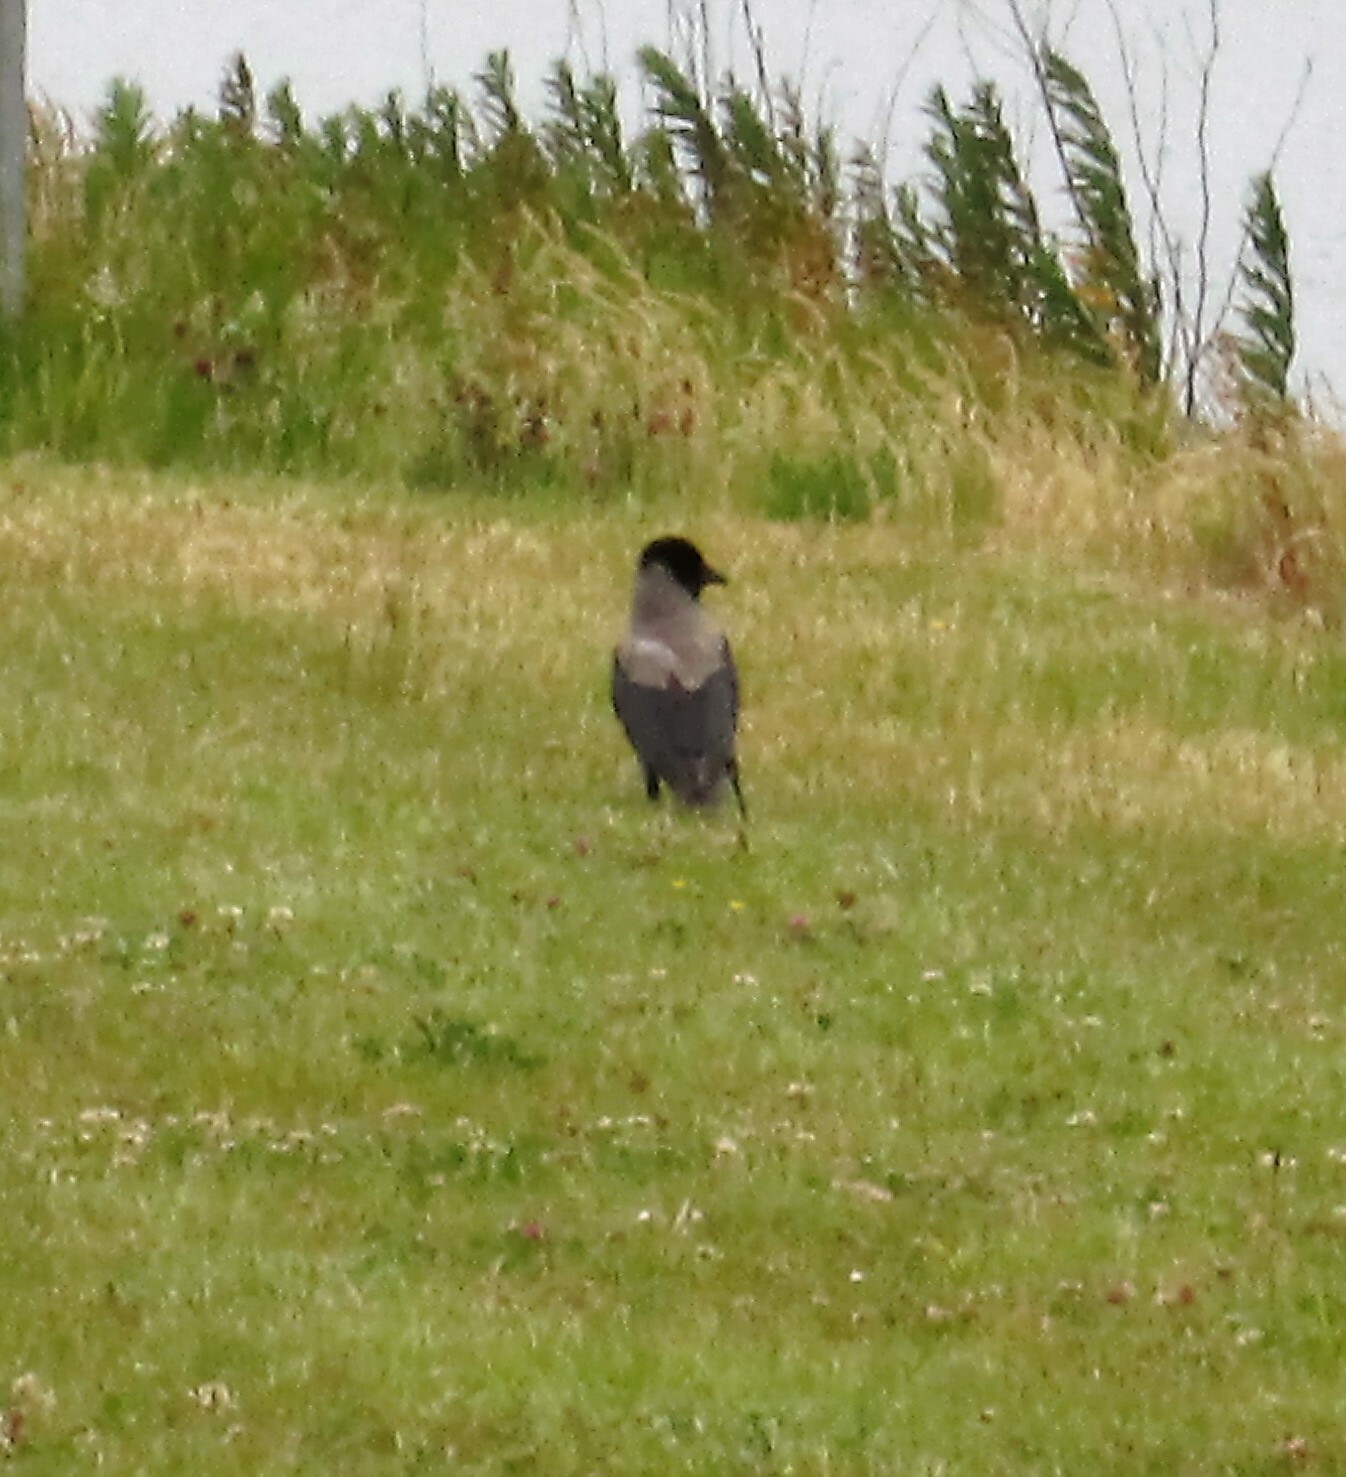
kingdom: Animalia
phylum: Chordata
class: Aves
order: Passeriformes
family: Corvidae
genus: Corvus
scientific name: Corvus cornix
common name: Hooded crow
